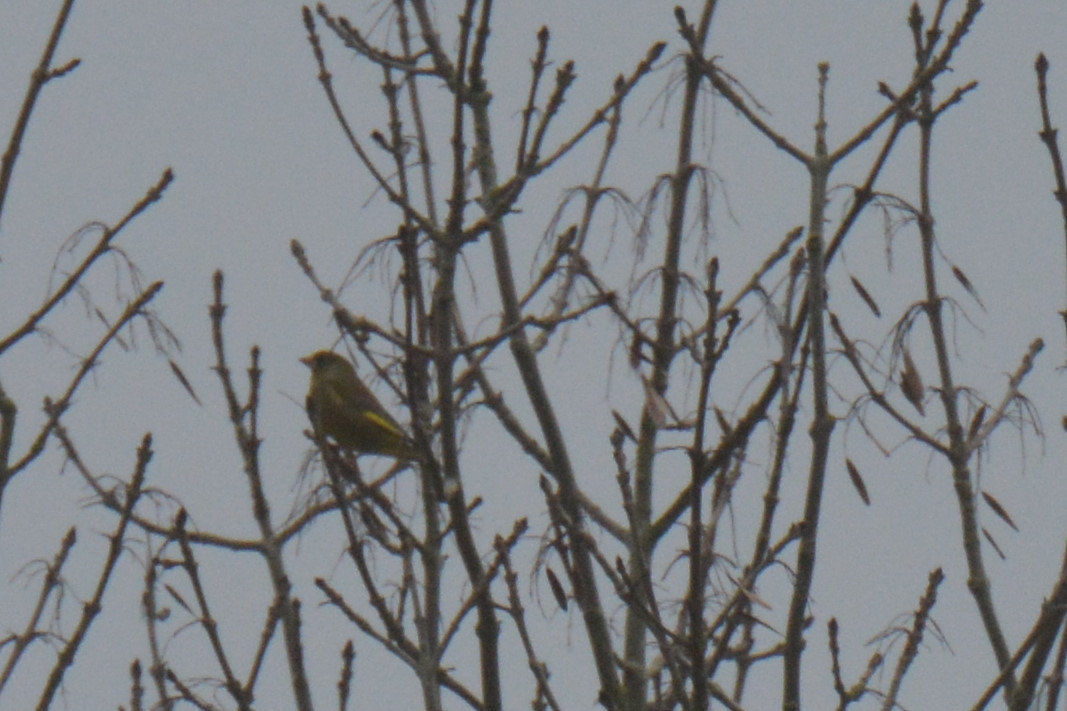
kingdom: Plantae
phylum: Tracheophyta
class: Liliopsida
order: Poales
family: Poaceae
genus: Chloris
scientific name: Chloris chloris
